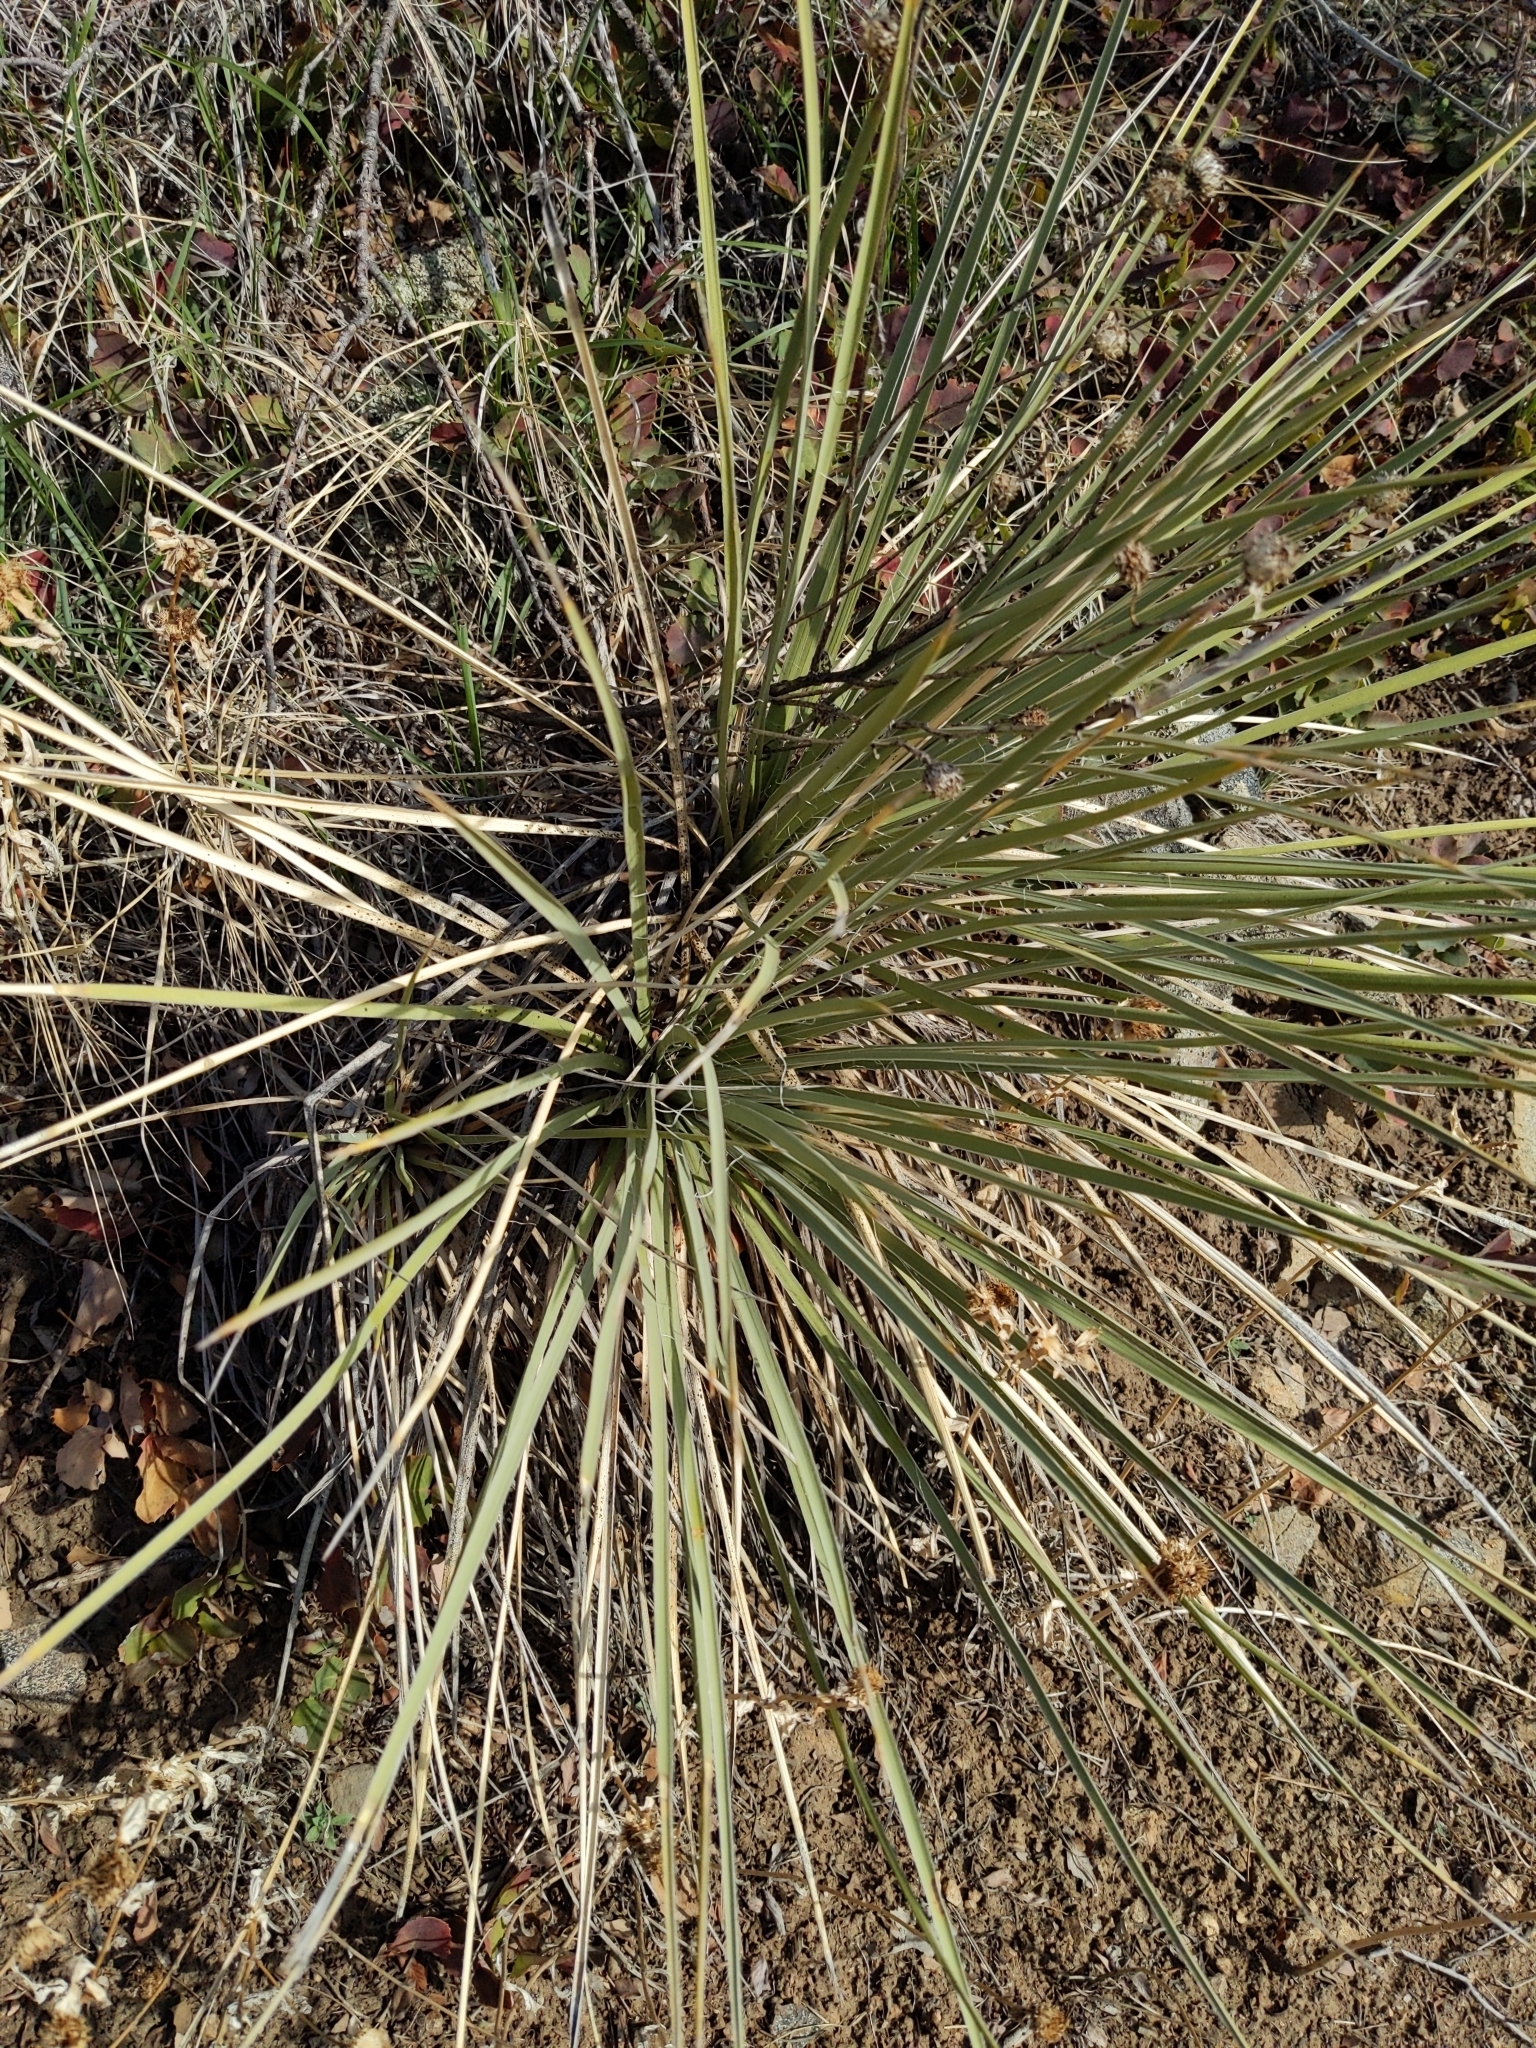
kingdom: Plantae
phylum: Tracheophyta
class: Liliopsida
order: Asparagales
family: Asparagaceae
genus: Yucca
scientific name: Yucca glauca
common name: Great plains yucca
